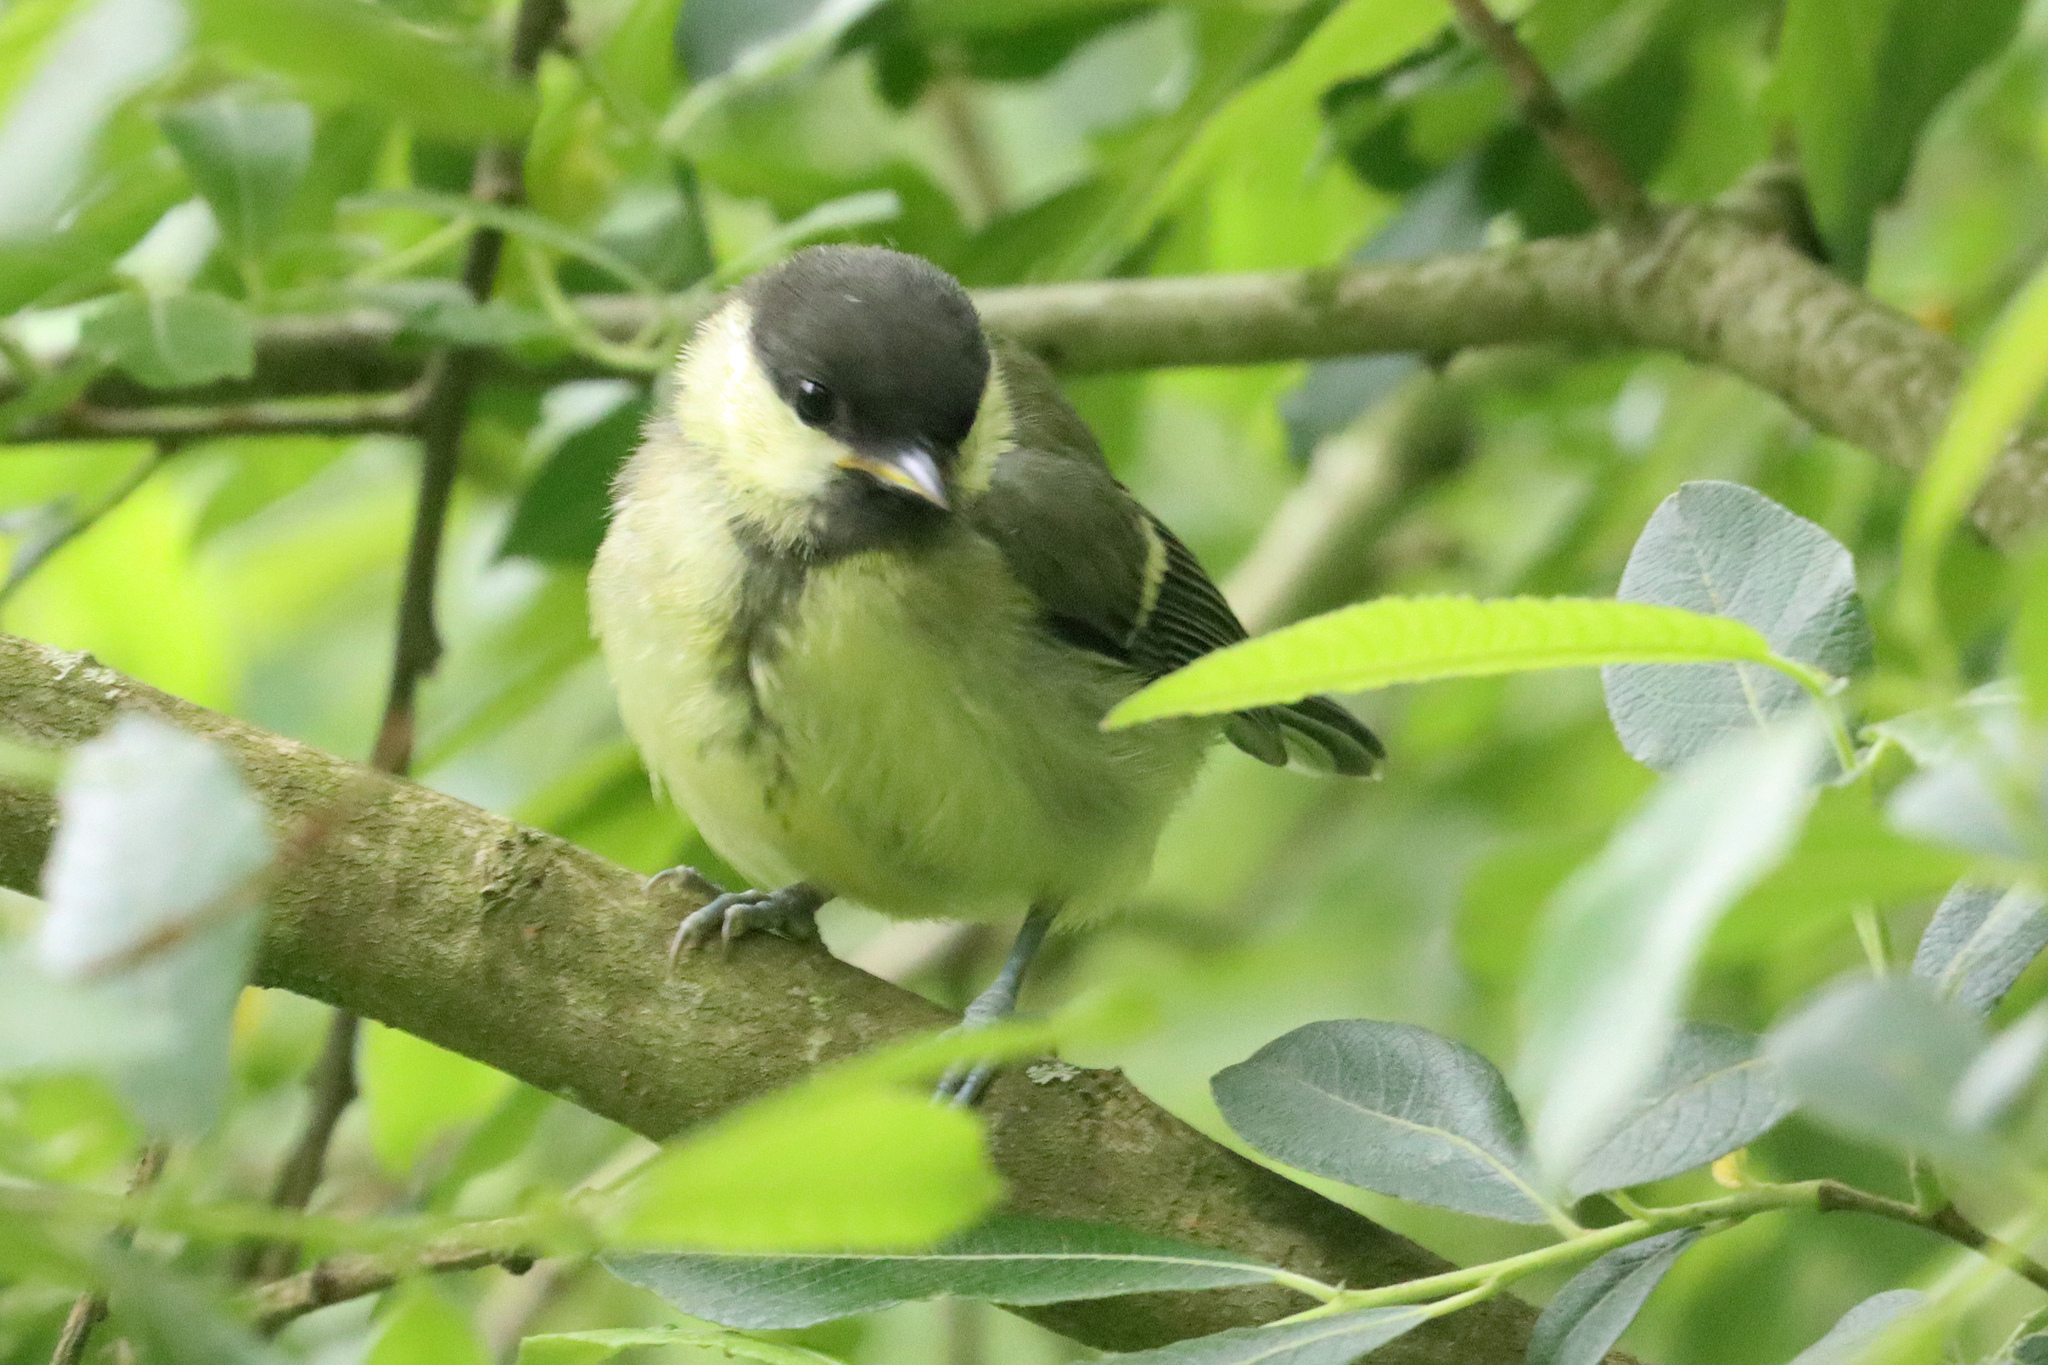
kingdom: Animalia
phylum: Chordata
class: Aves
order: Passeriformes
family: Paridae
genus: Parus
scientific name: Parus major
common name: Great tit
